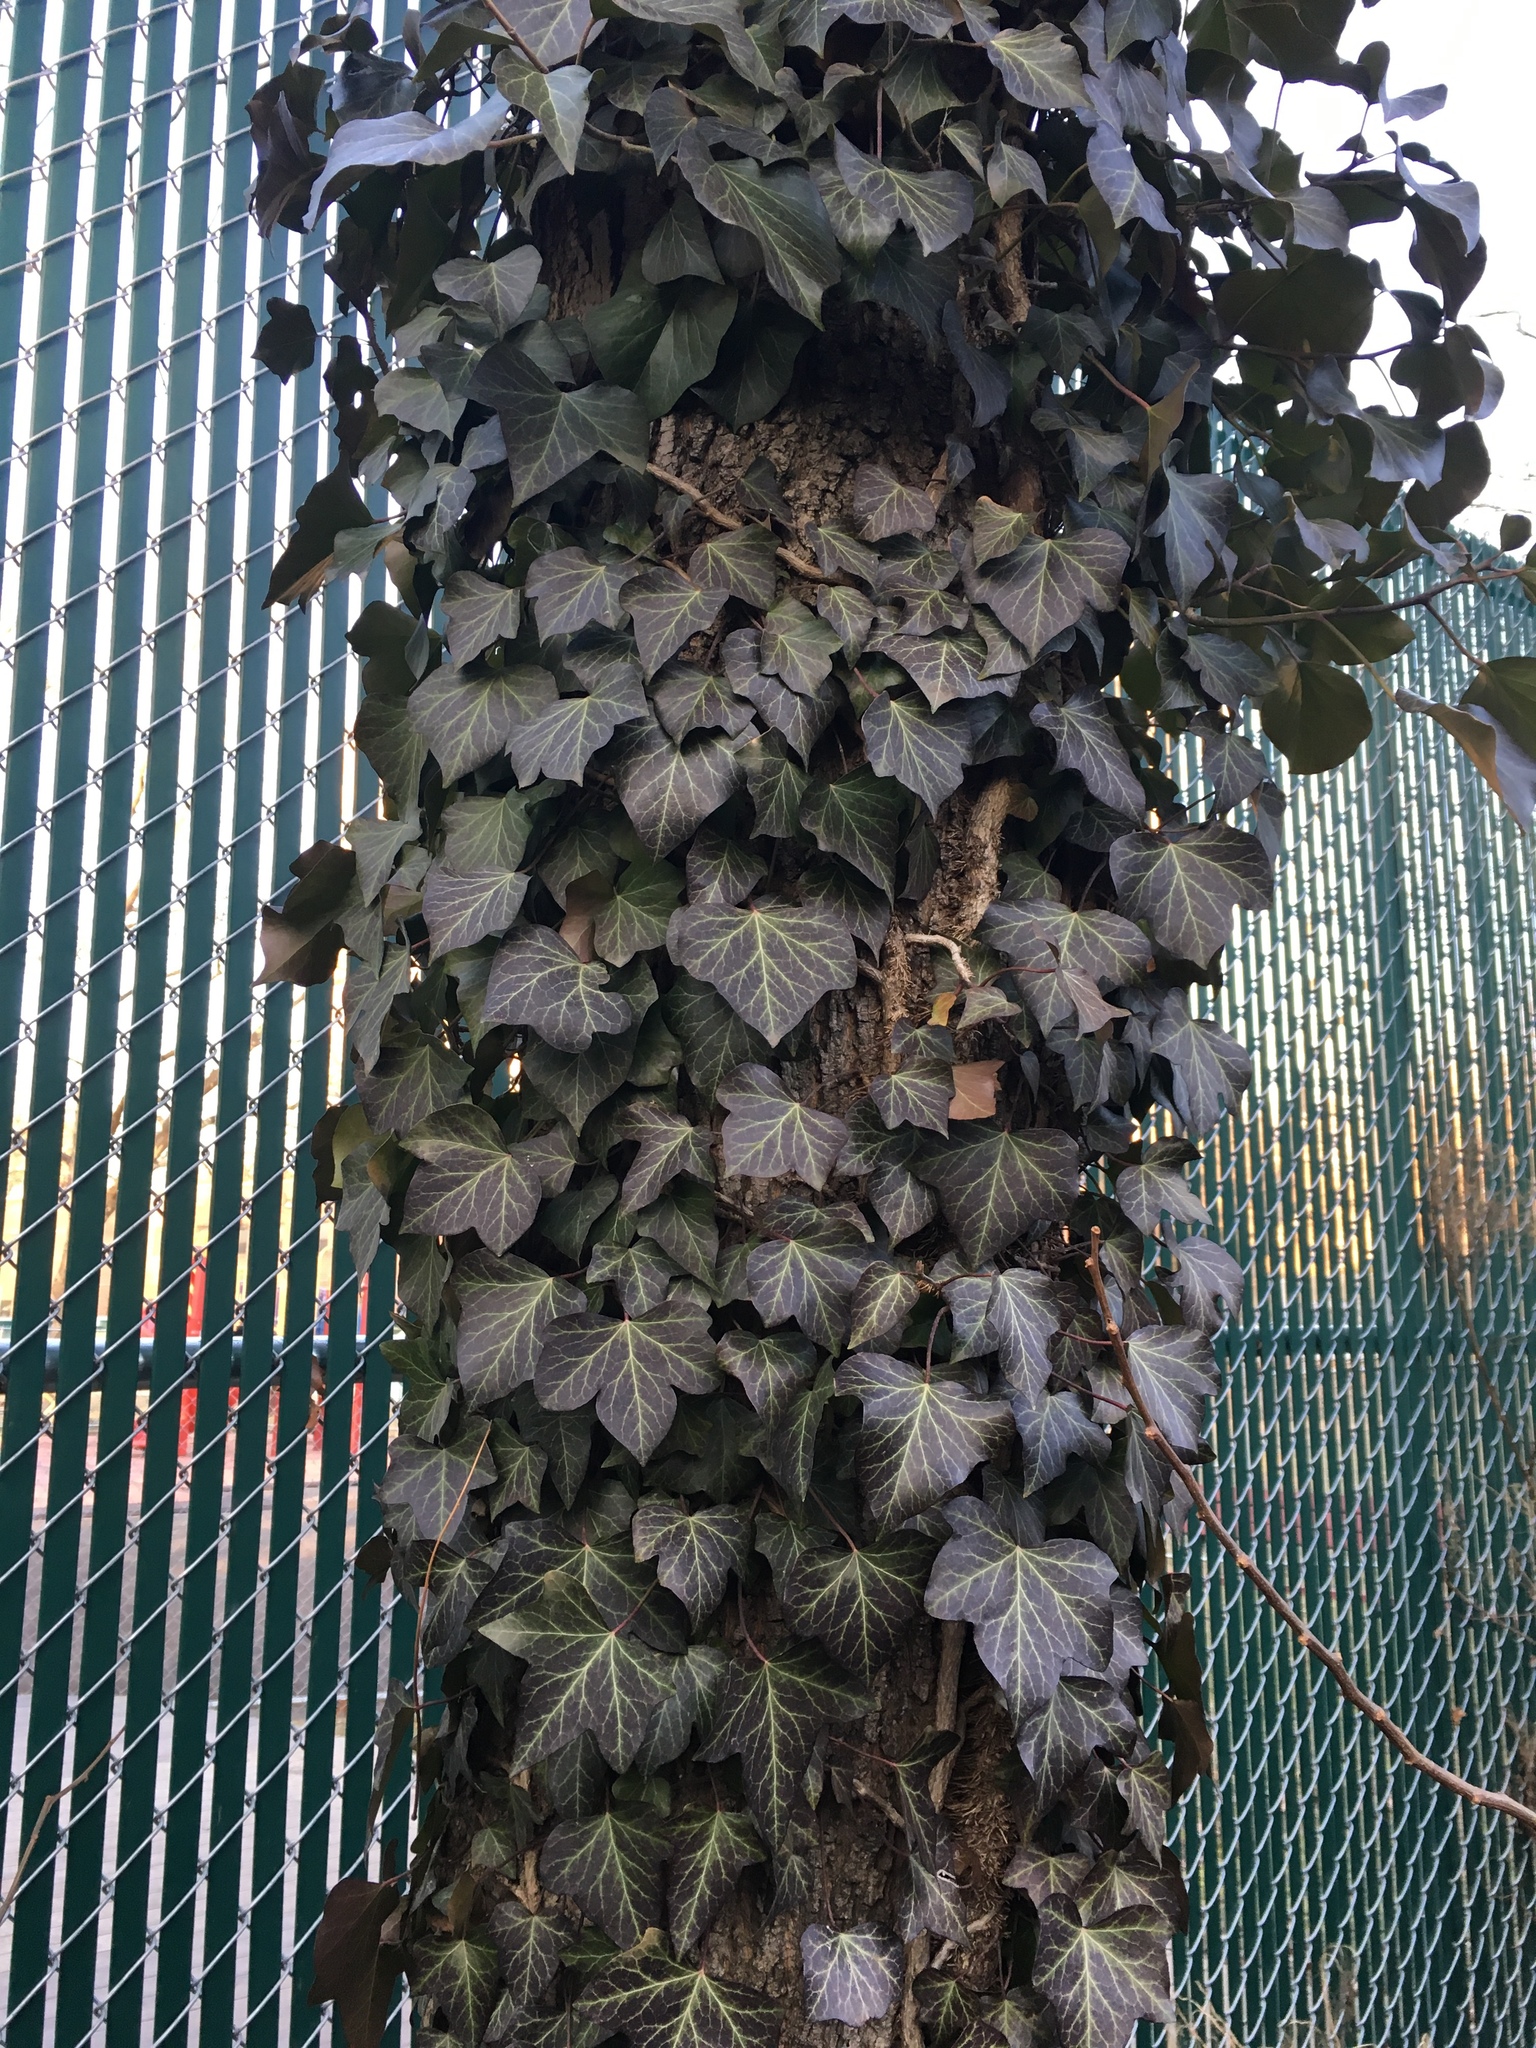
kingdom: Plantae
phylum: Tracheophyta
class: Magnoliopsida
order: Apiales
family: Araliaceae
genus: Hedera
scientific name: Hedera helix
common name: Ivy
